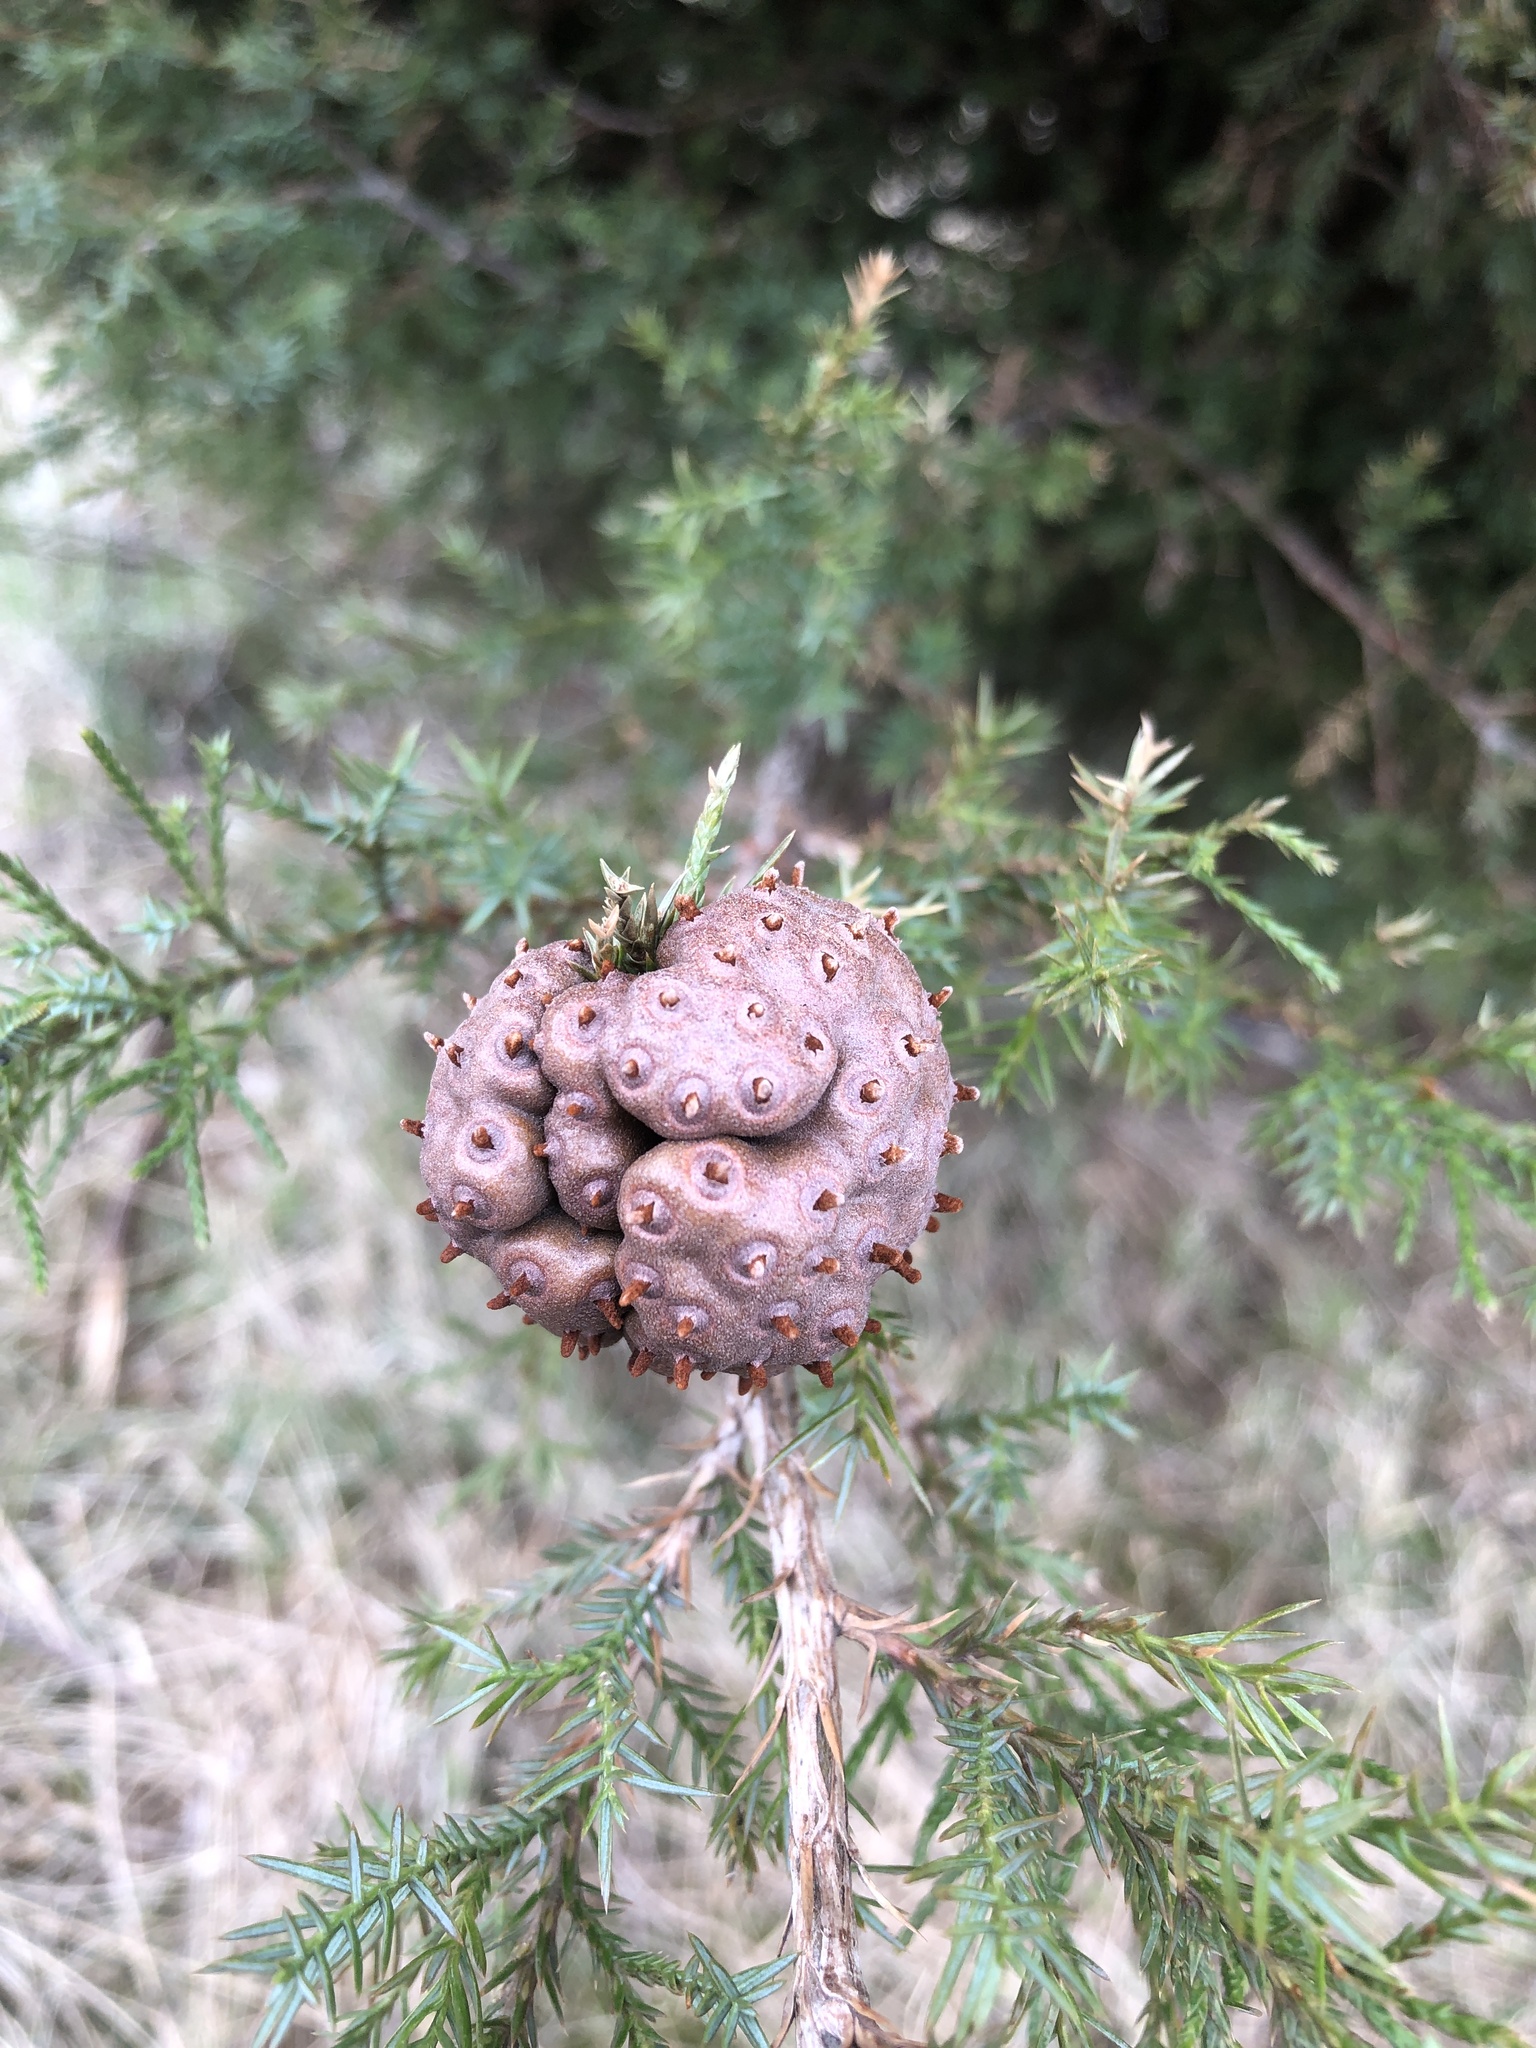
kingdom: Fungi
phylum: Basidiomycota
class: Pucciniomycetes
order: Pucciniales
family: Gymnosporangiaceae
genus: Gymnosporangium
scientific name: Gymnosporangium juniperi-virginianae
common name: Juniper-apple rust
